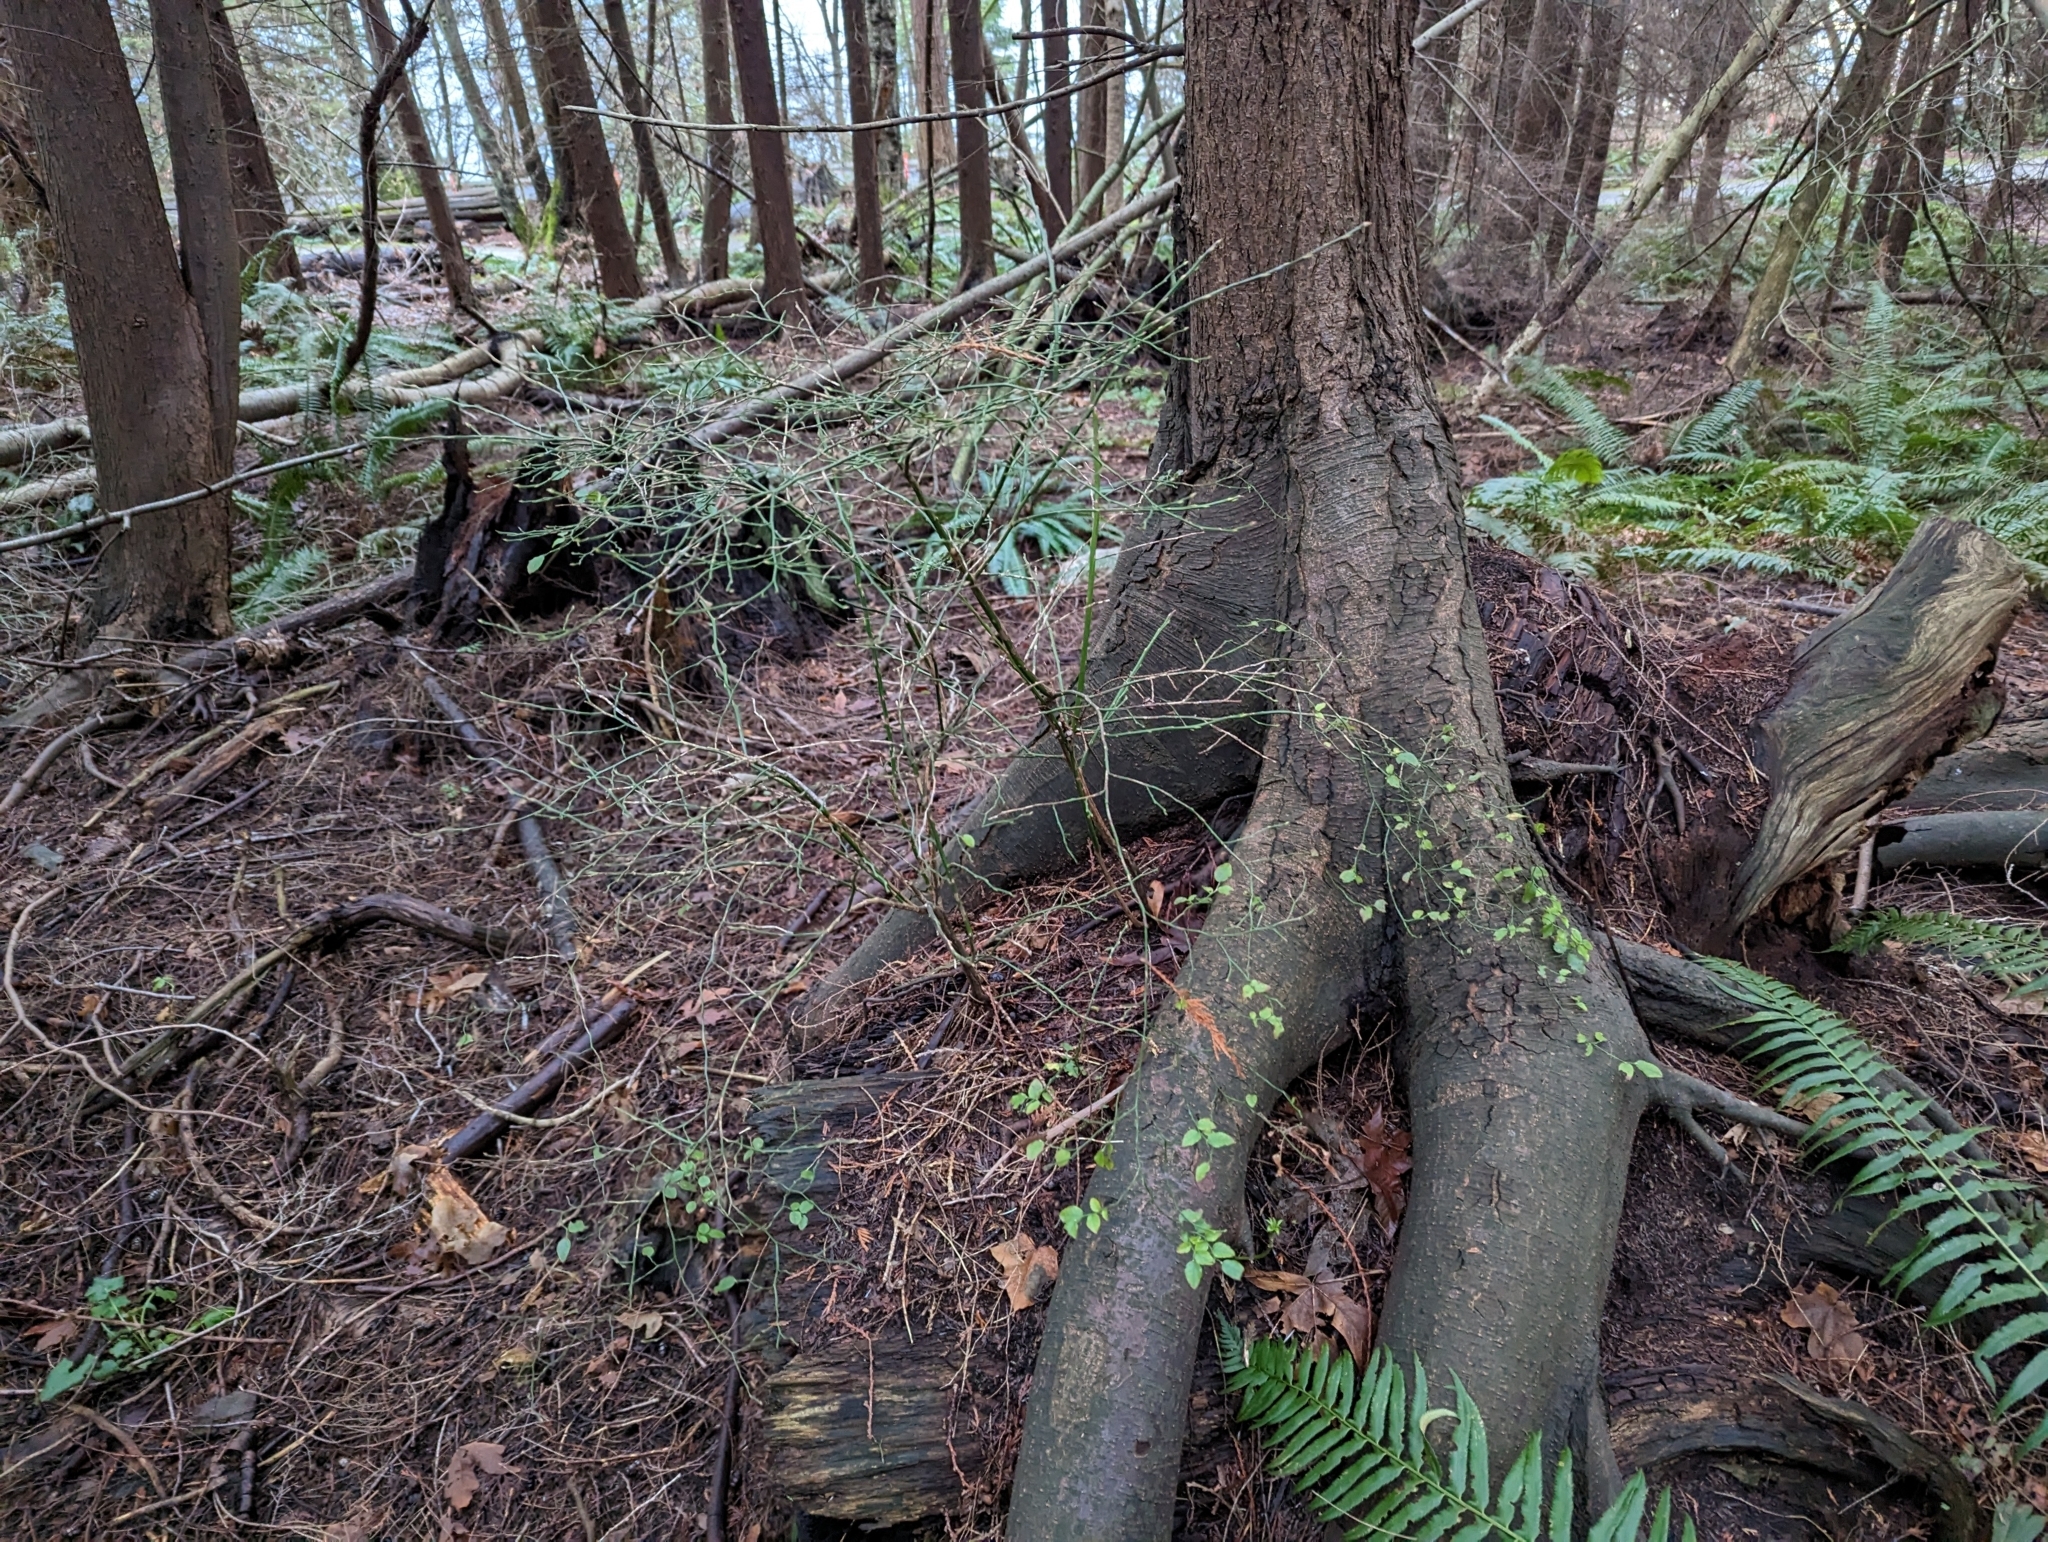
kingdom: Plantae
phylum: Tracheophyta
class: Magnoliopsida
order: Ericales
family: Ericaceae
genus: Vaccinium
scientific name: Vaccinium parvifolium
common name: Red-huckleberry
